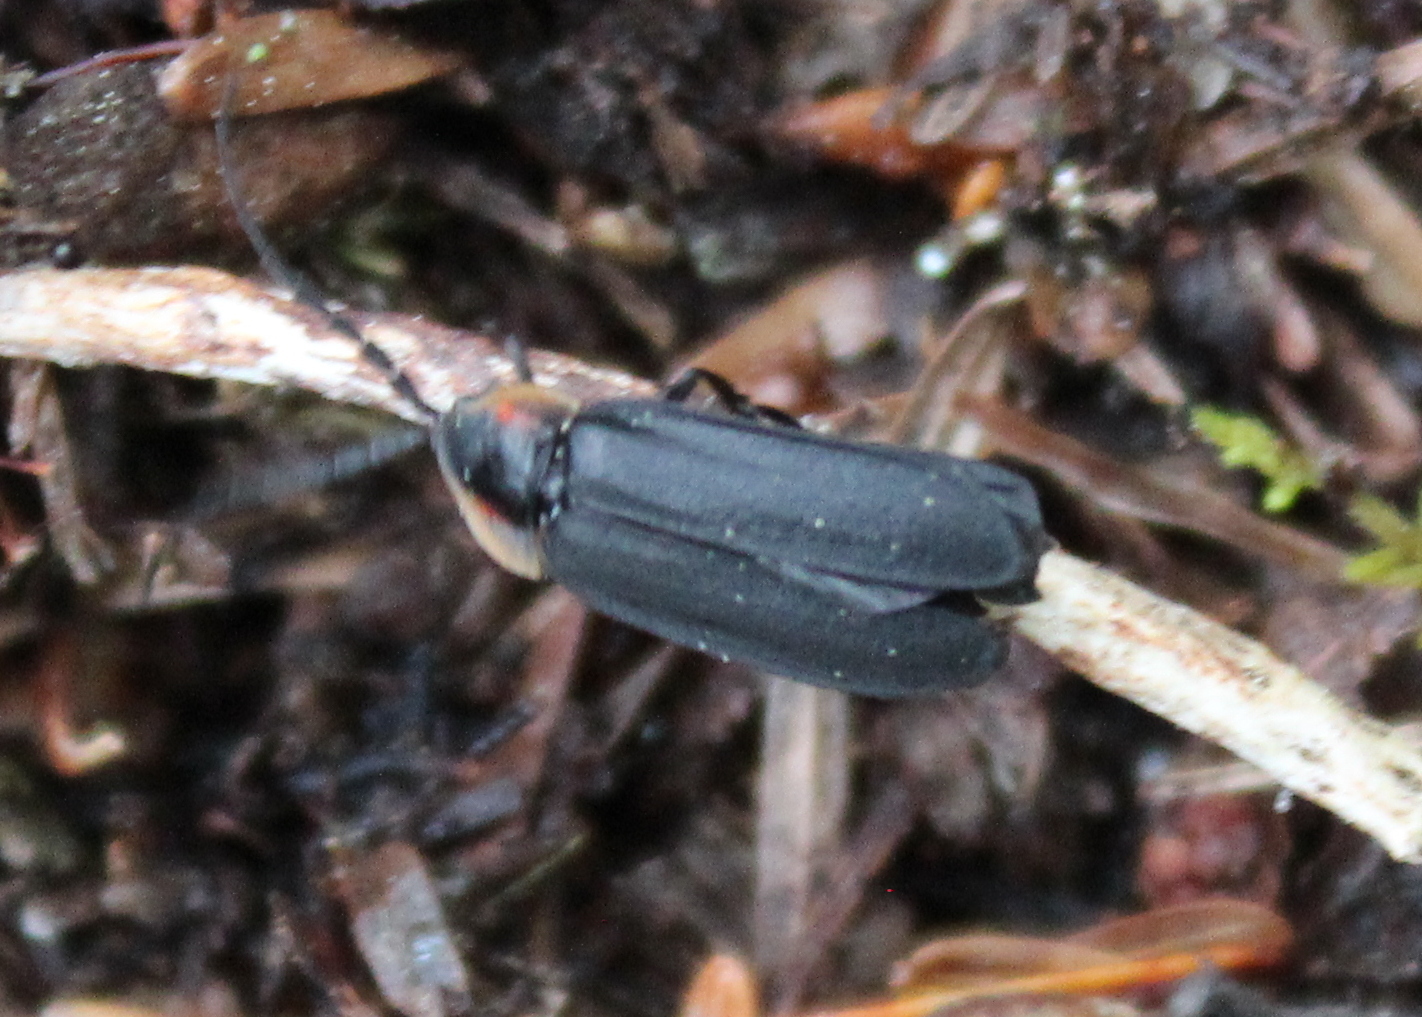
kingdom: Animalia
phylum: Arthropoda
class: Insecta
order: Coleoptera
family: Lampyridae
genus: Lucidota
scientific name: Lucidota atra
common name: Black firefly
